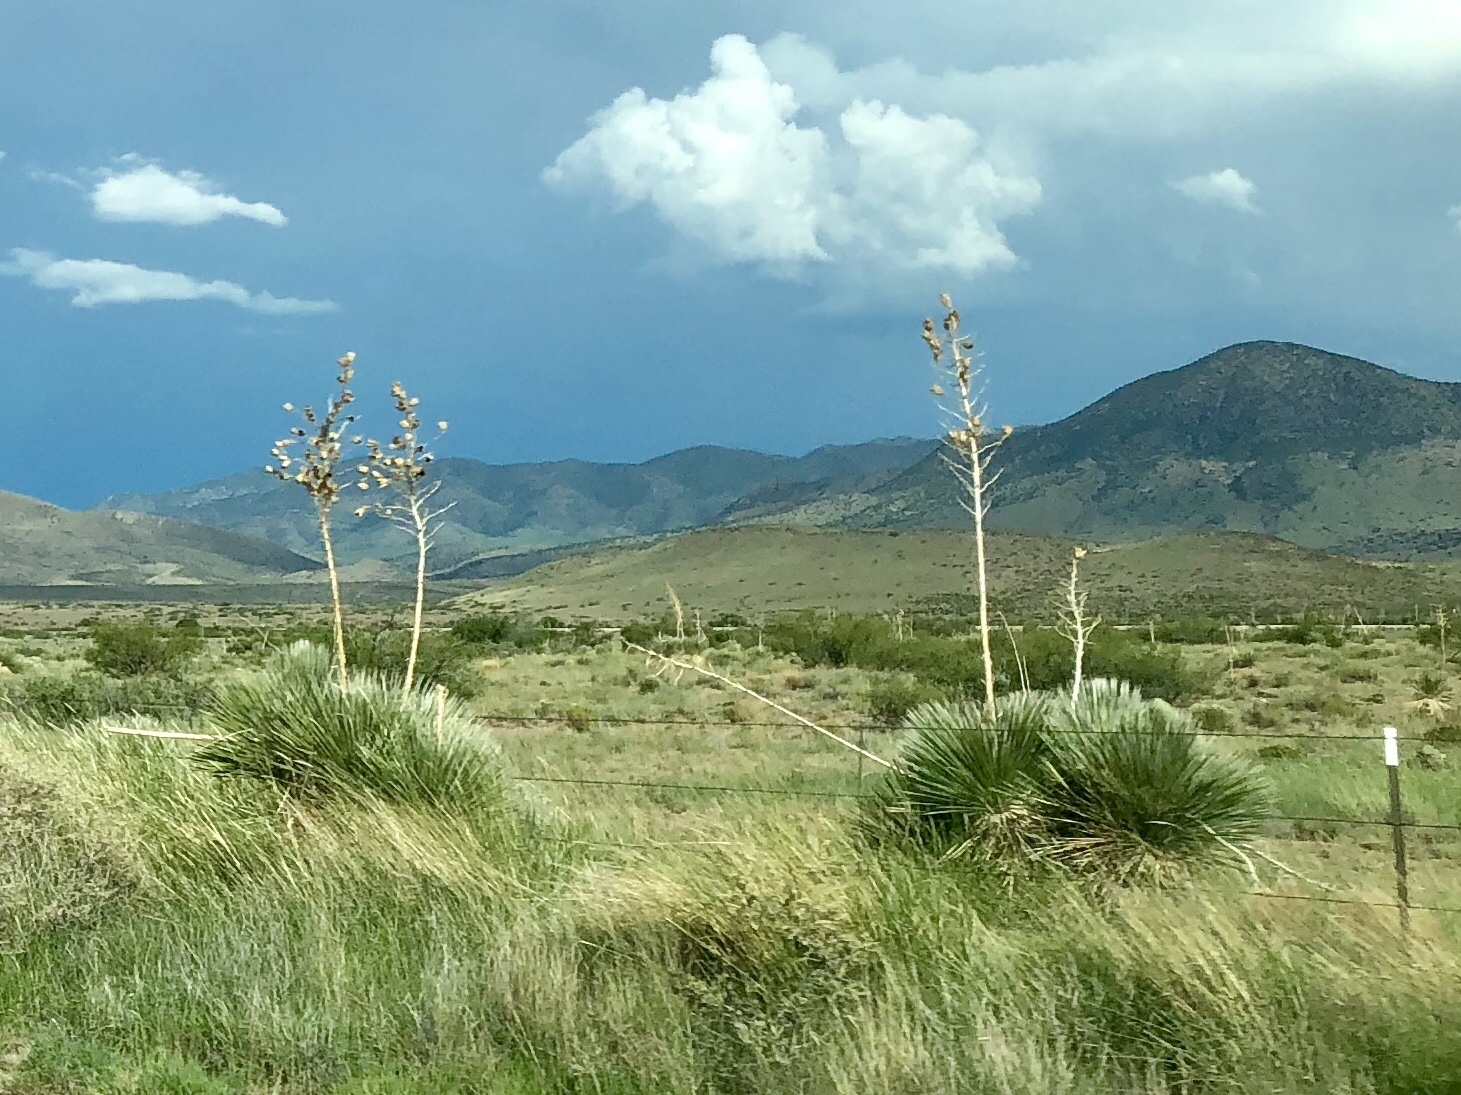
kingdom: Plantae
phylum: Tracheophyta
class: Liliopsida
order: Asparagales
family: Asparagaceae
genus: Yucca
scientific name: Yucca elata
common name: Palmella
